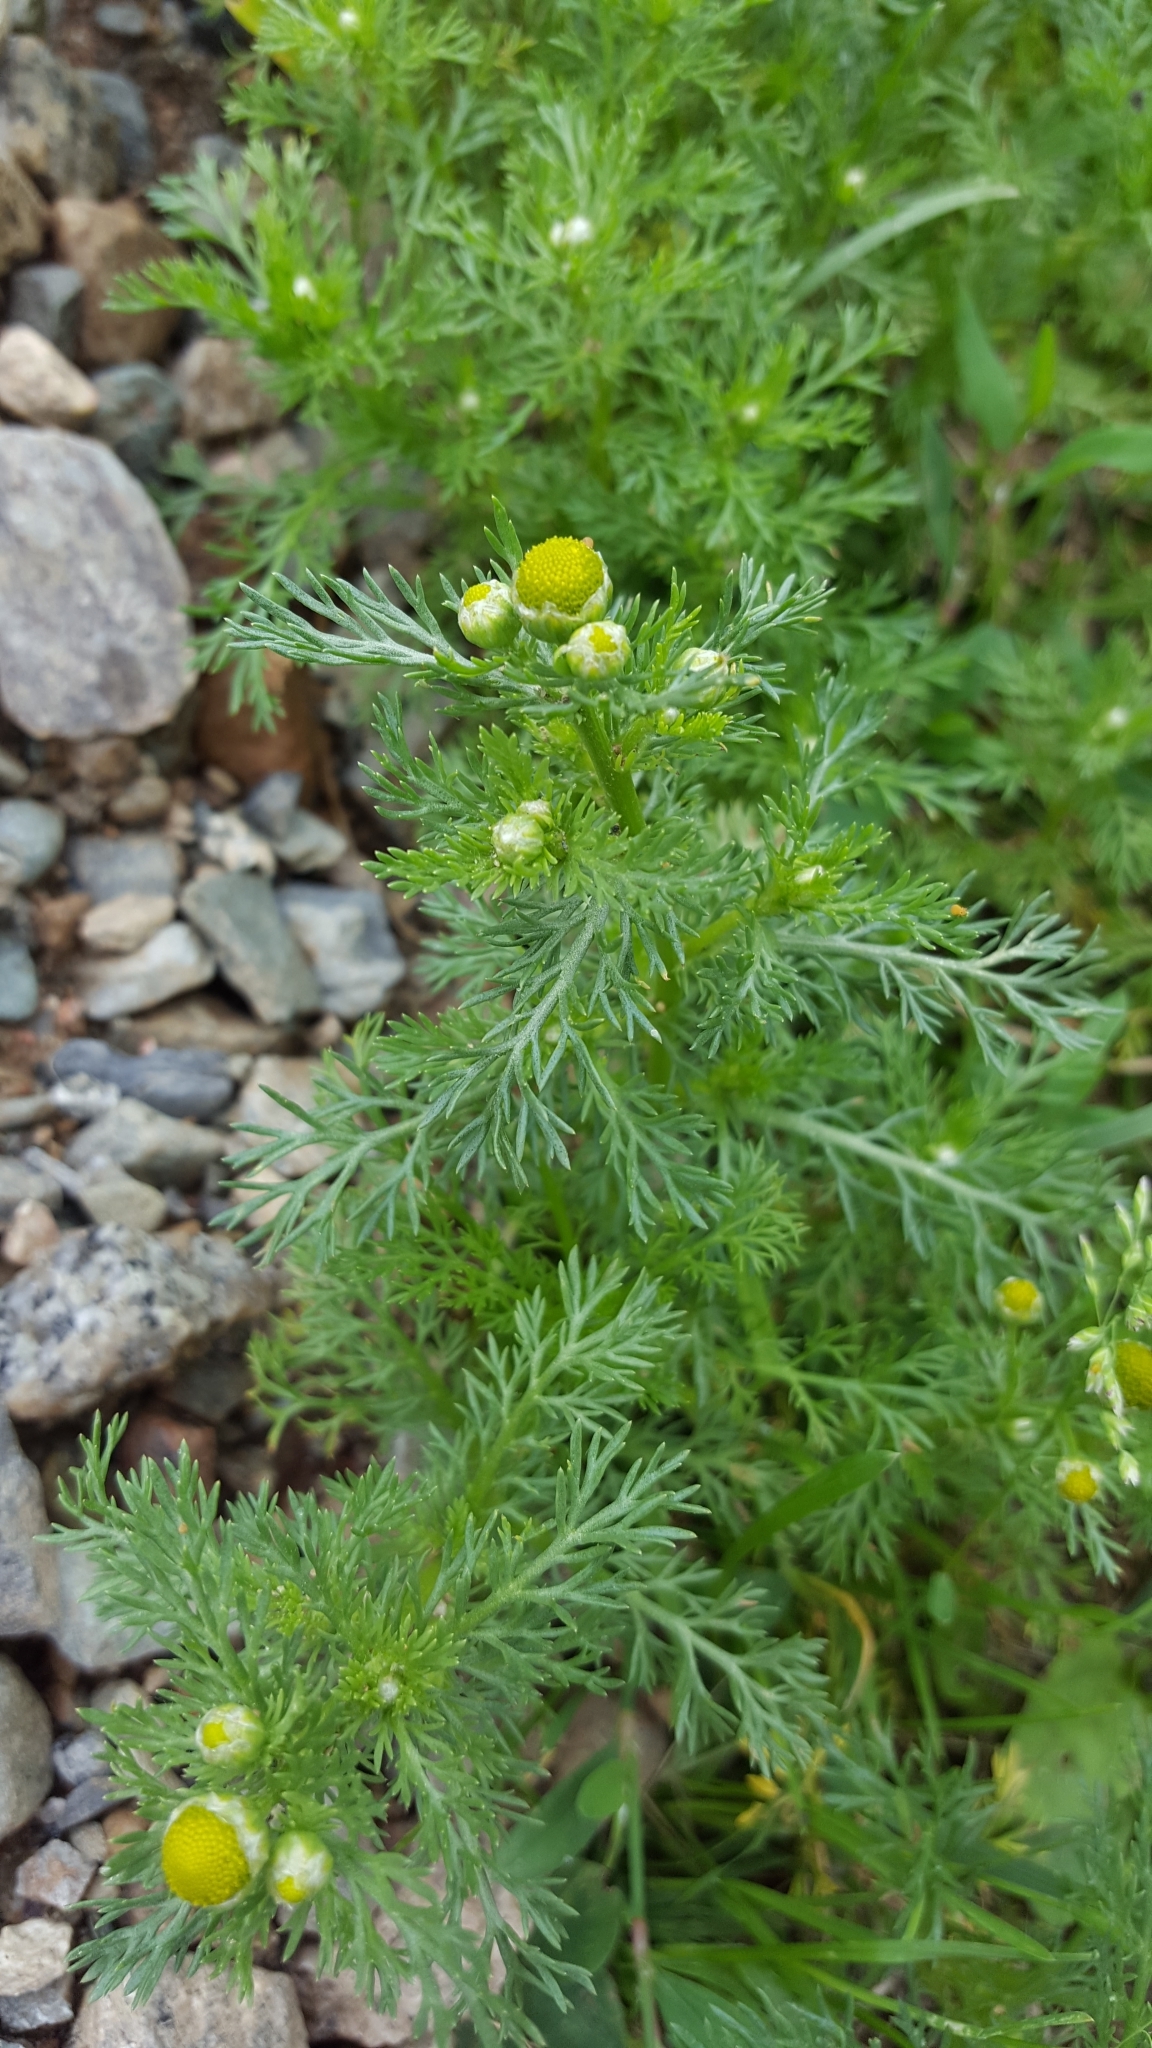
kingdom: Plantae
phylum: Tracheophyta
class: Magnoliopsida
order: Asterales
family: Asteraceae
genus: Matricaria
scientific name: Matricaria discoidea
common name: Disc mayweed
